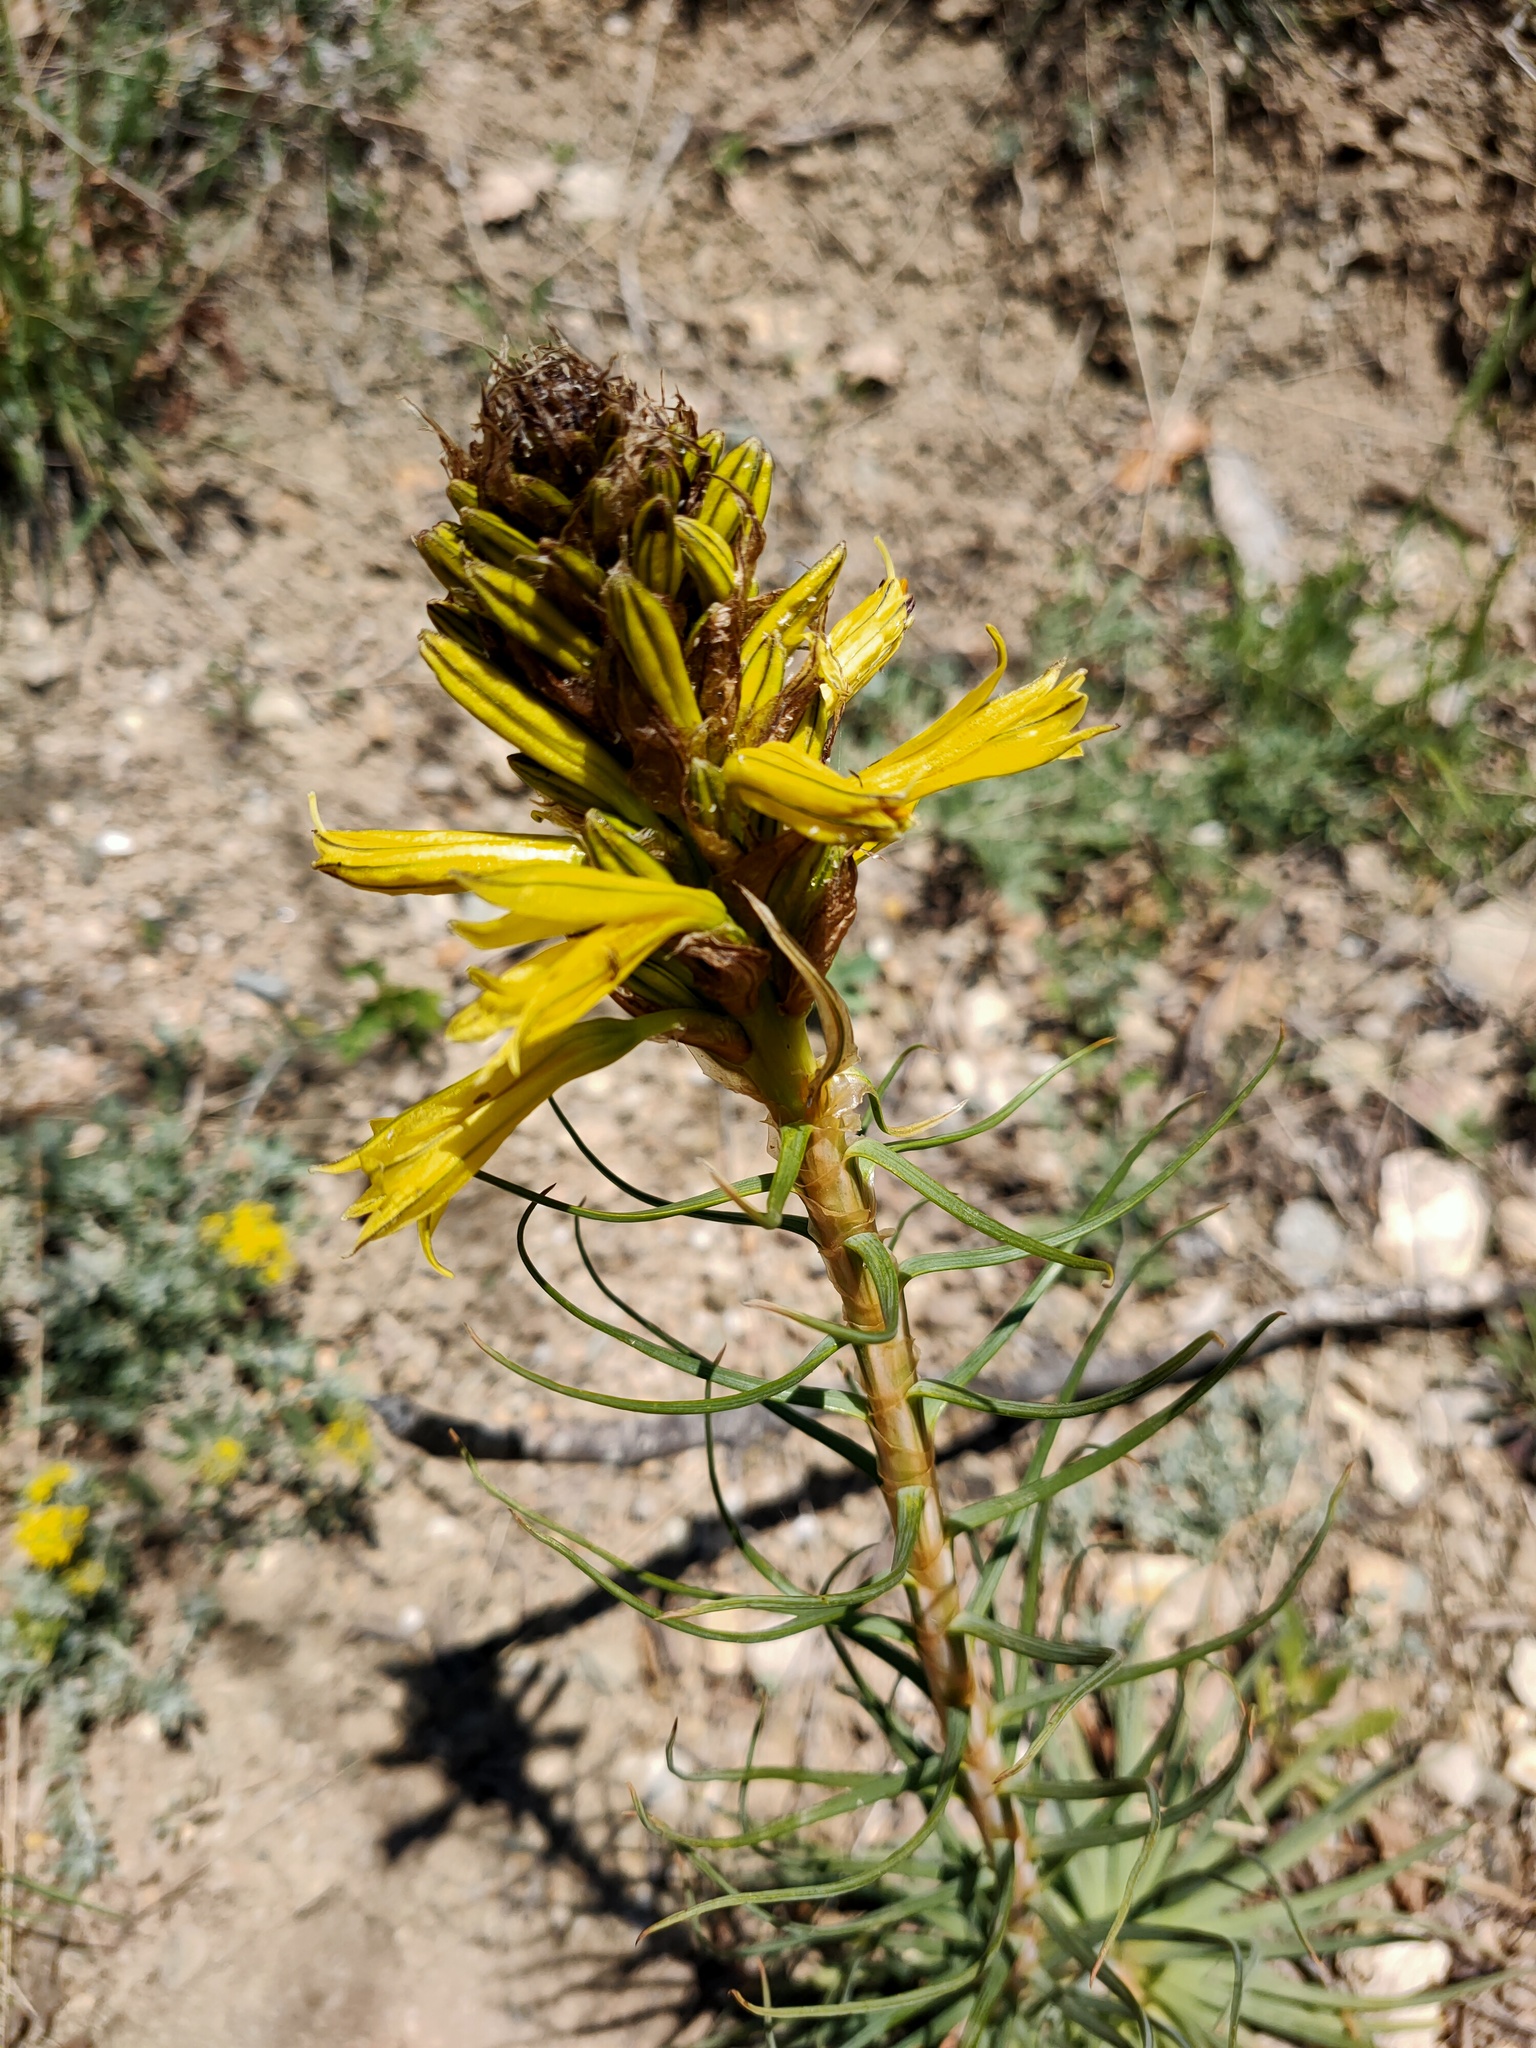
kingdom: Plantae
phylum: Tracheophyta
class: Liliopsida
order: Asparagales
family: Asphodelaceae
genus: Asphodeline
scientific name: Asphodeline lutea
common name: Yellow asphodel
